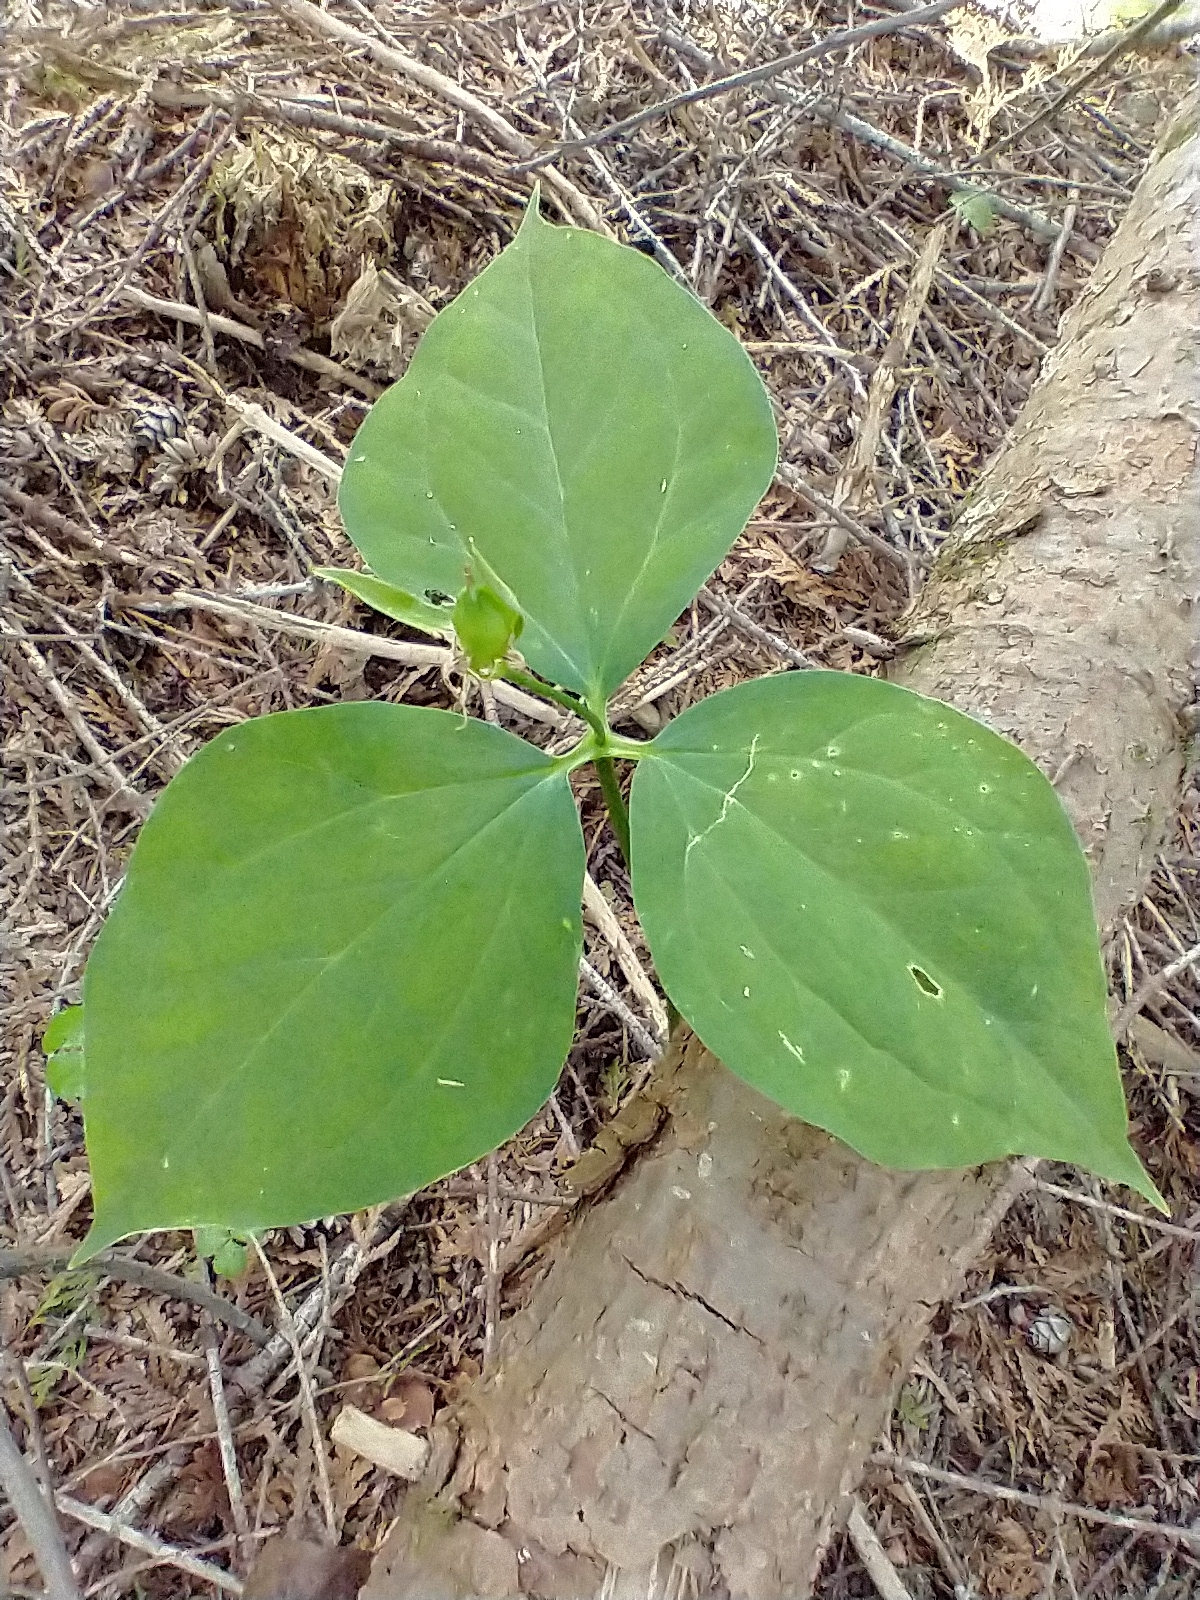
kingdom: Plantae
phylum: Tracheophyta
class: Liliopsida
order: Liliales
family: Melanthiaceae
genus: Trillium
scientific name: Trillium undulatum
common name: Paint trillium
